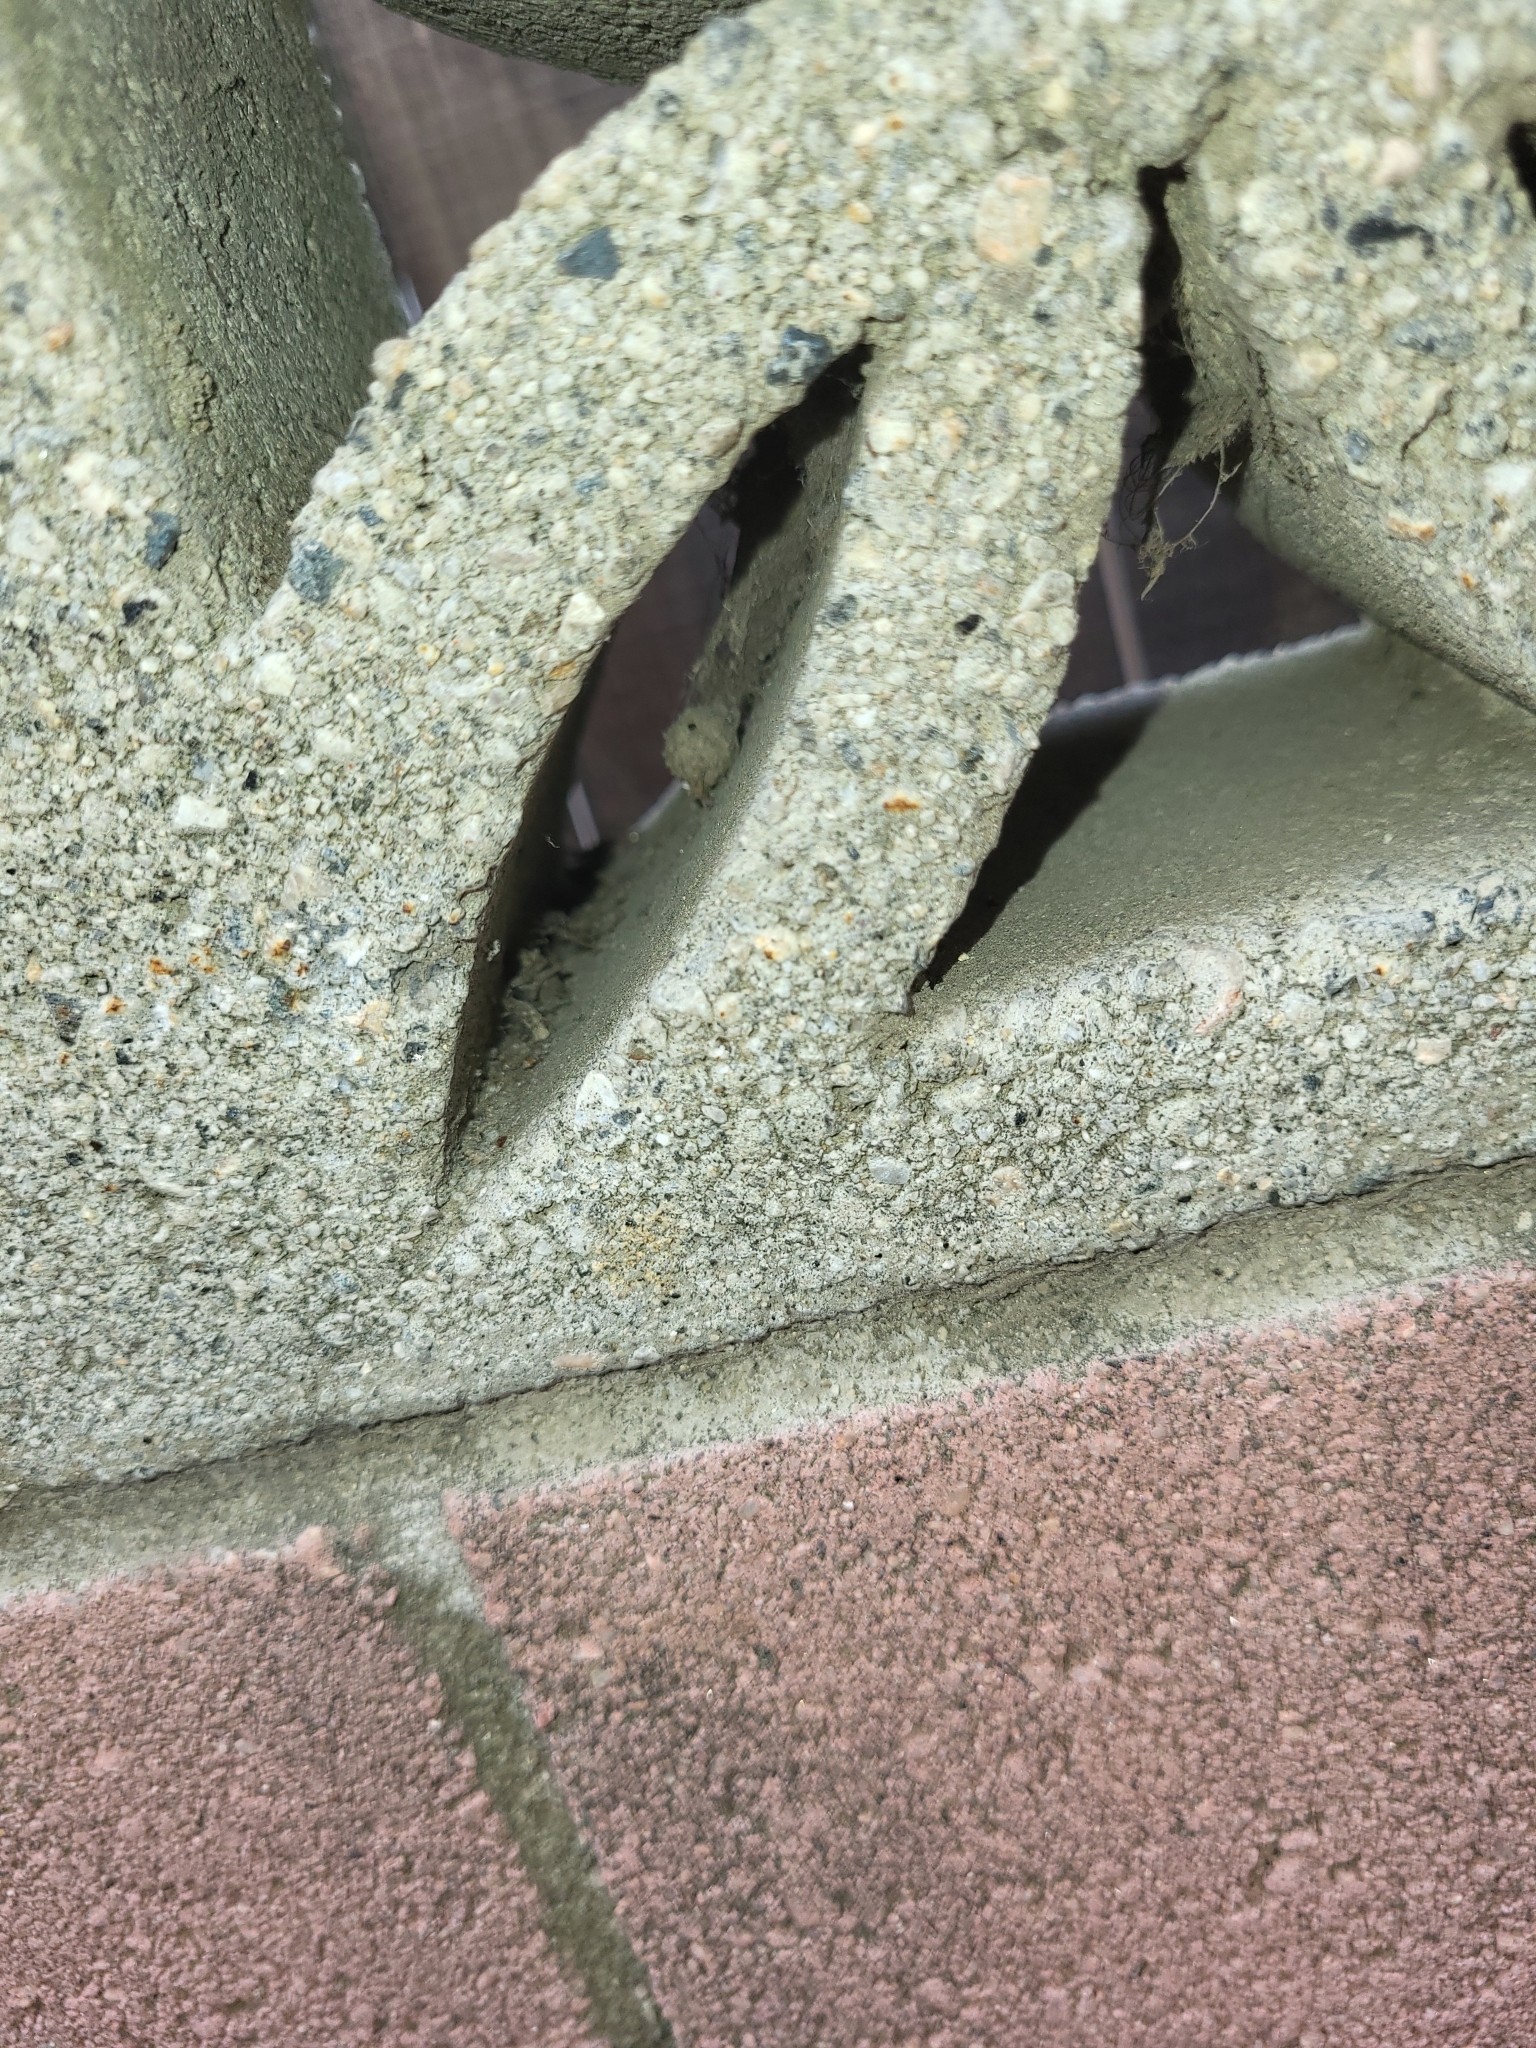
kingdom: Animalia
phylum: Arthropoda
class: Arachnida
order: Araneae
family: Theridiidae
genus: Latrodectus
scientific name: Latrodectus geometricus
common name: Brown widow spider
